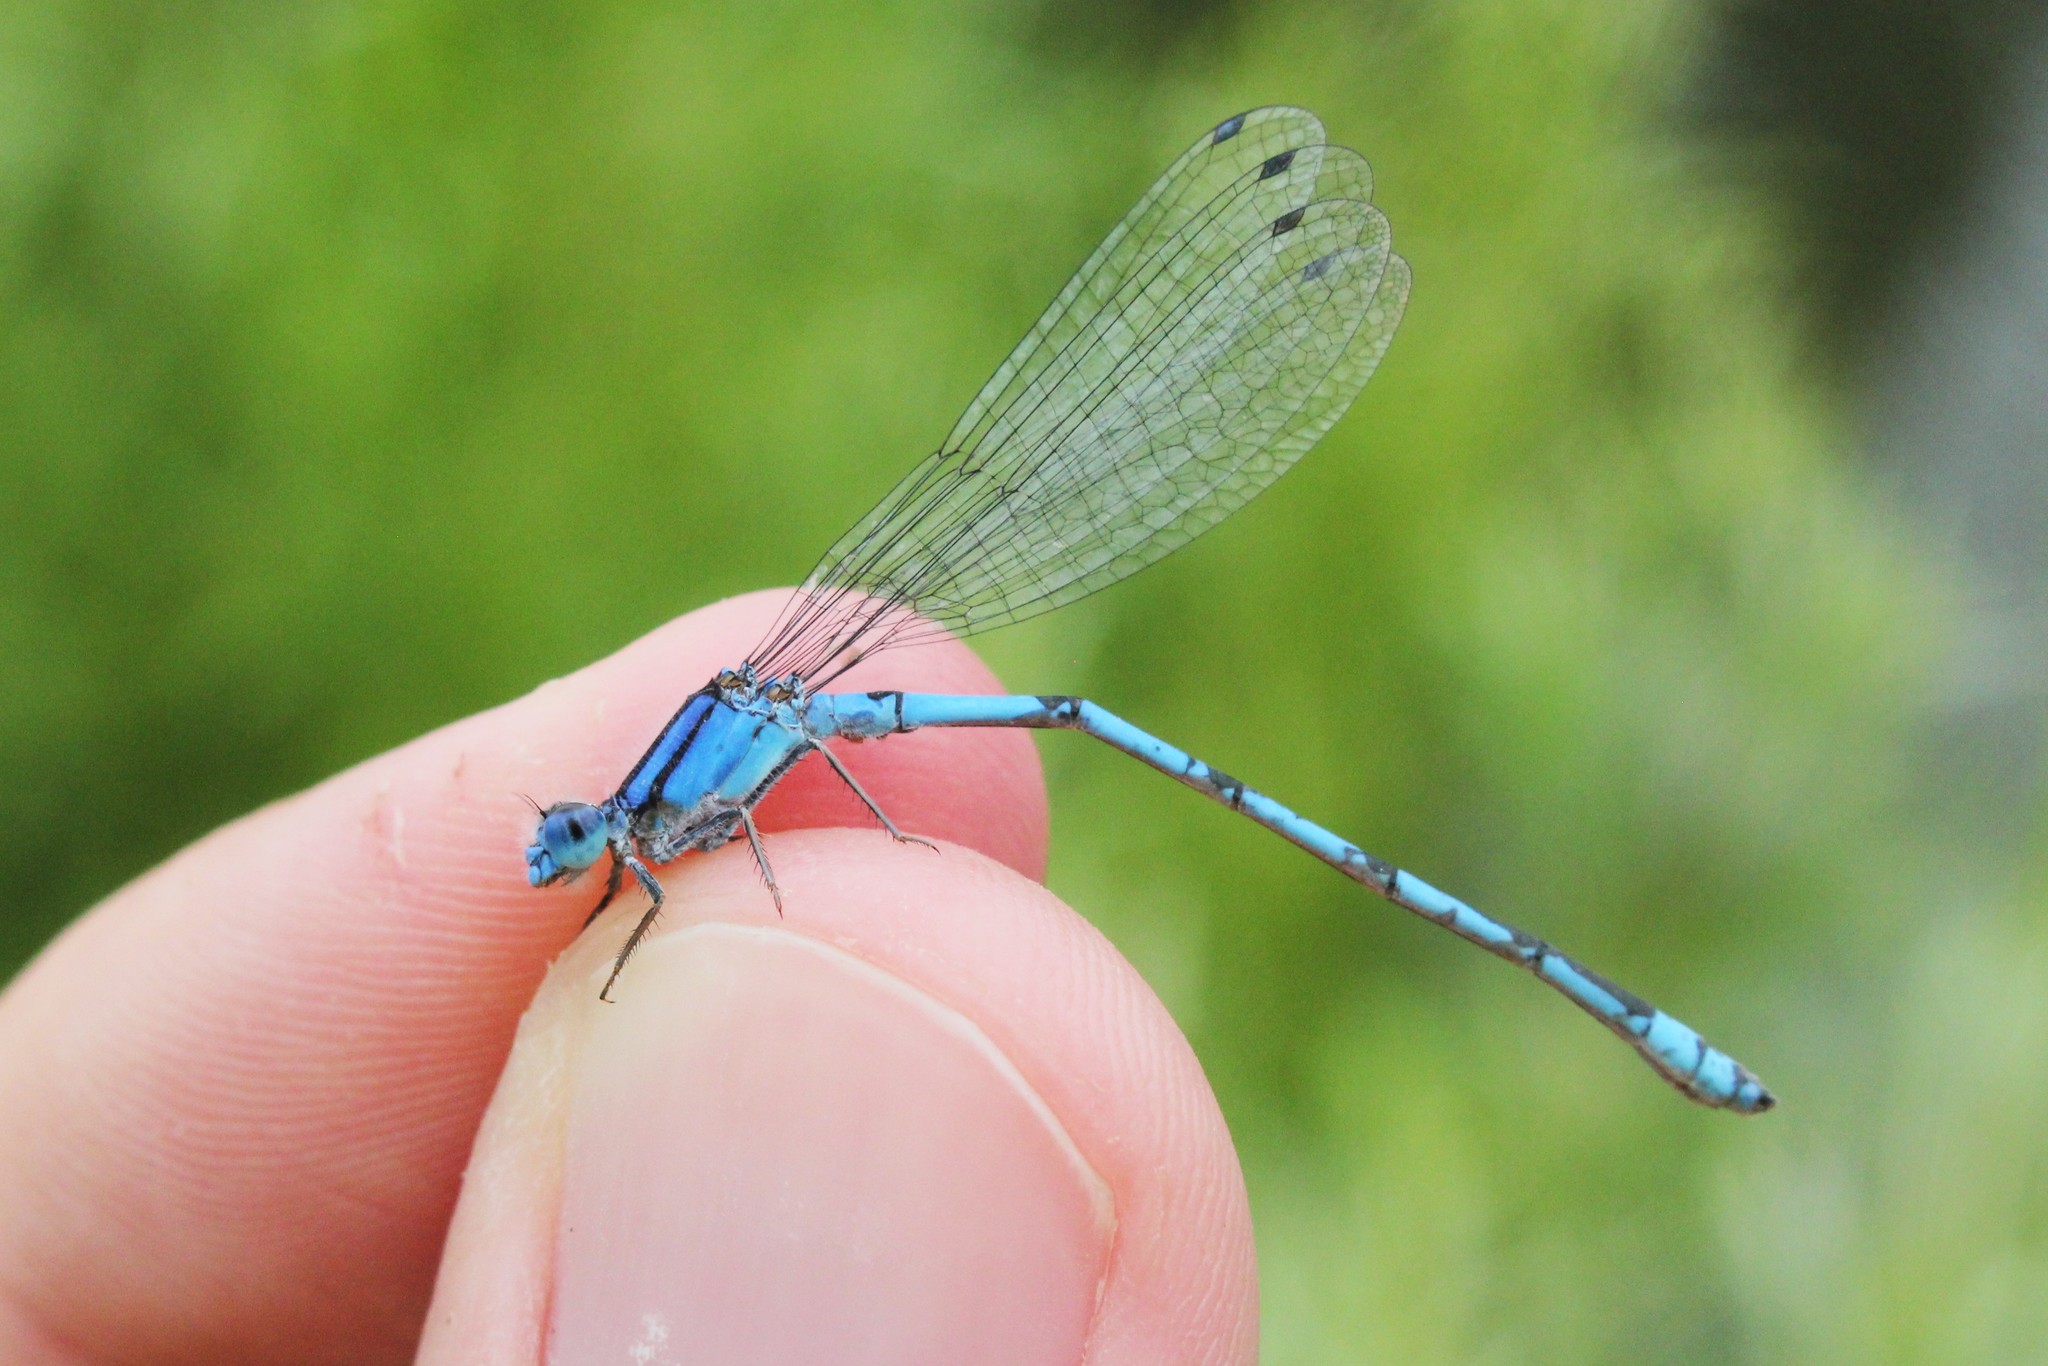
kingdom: Animalia
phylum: Arthropoda
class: Insecta
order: Odonata
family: Coenagrionidae
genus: Enallagma
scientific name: Enallagma civile
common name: Damselfly
